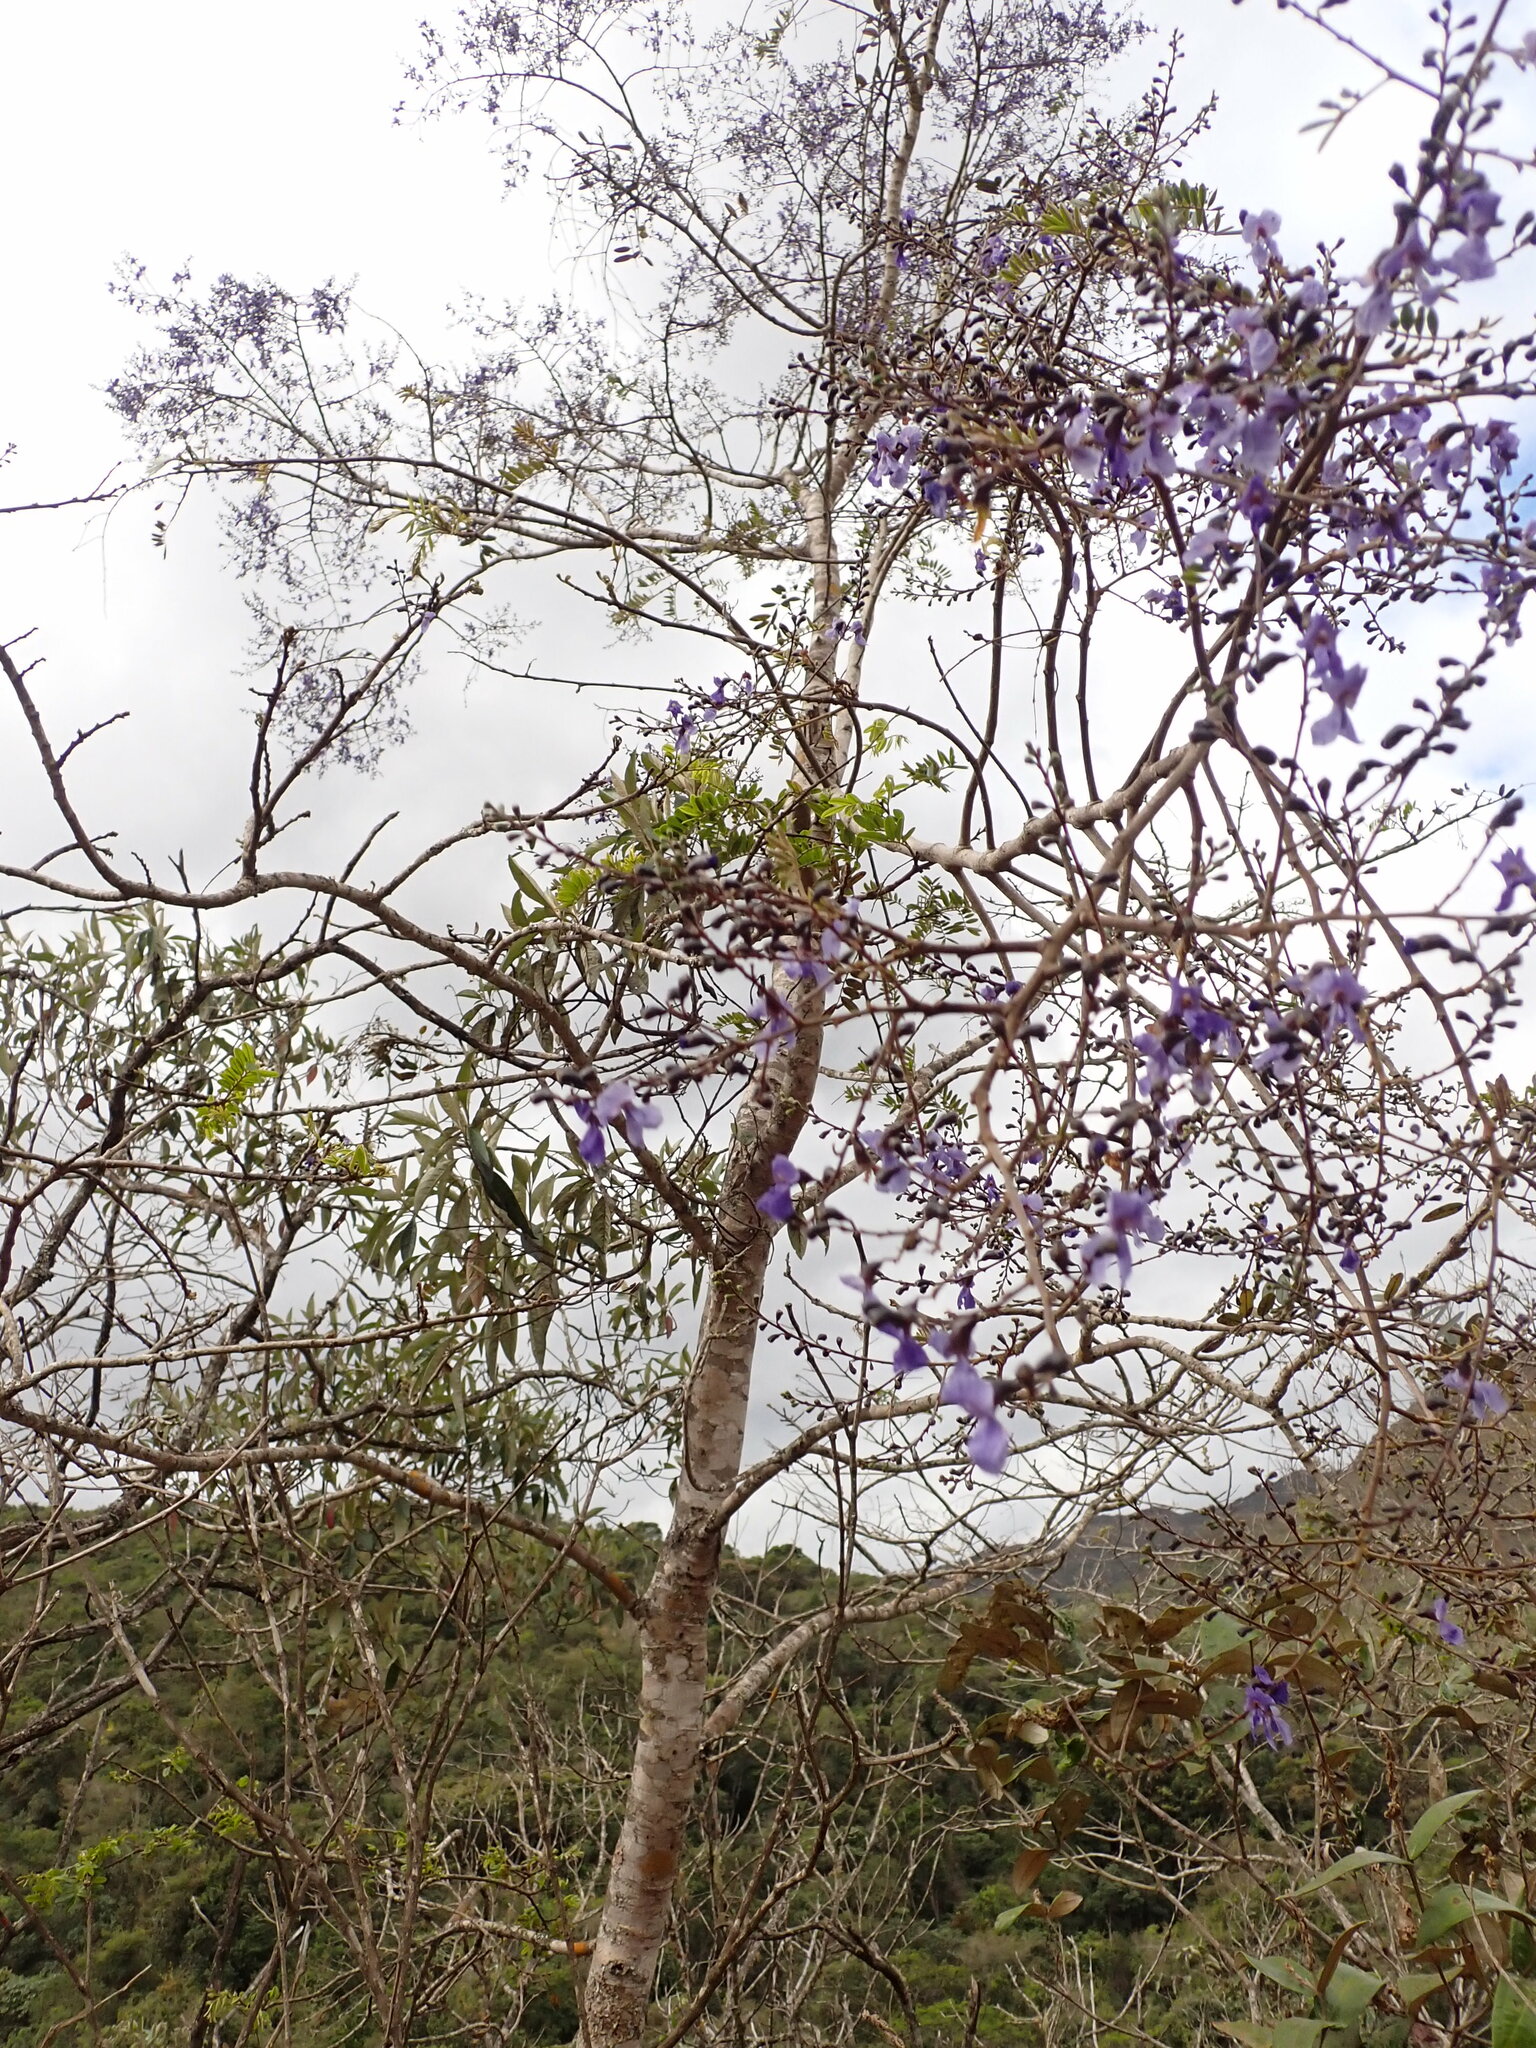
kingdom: Plantae
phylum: Tracheophyta
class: Magnoliopsida
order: Fabales
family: Fabaceae
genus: Bowdichia
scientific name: Bowdichia virgilioides
